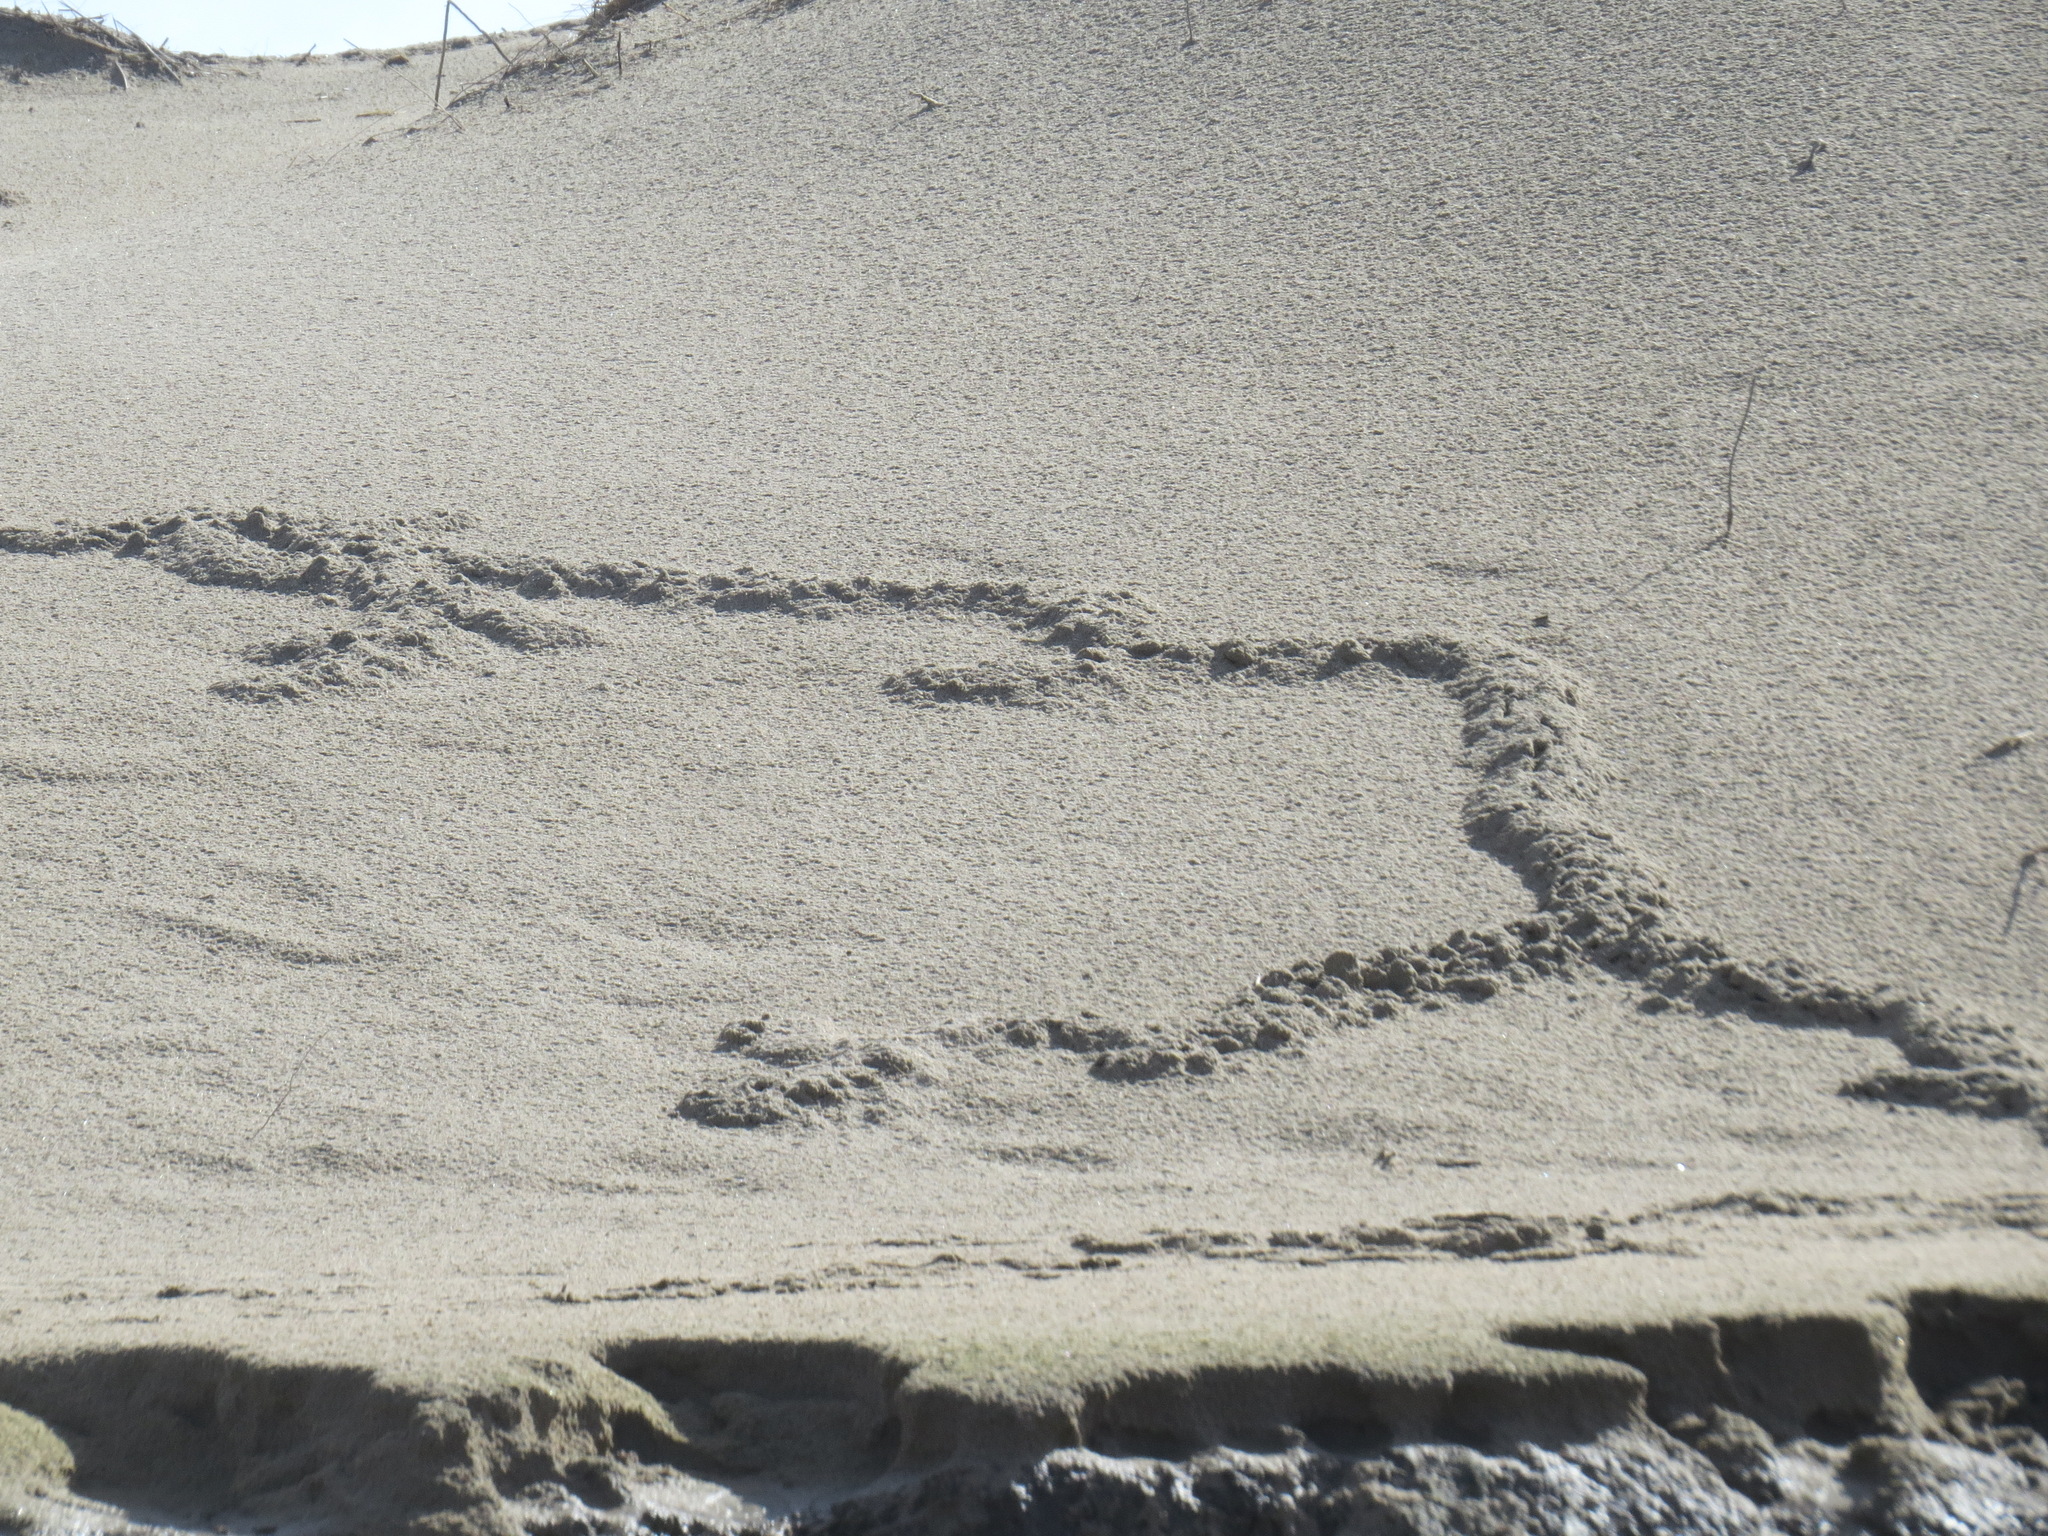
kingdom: Animalia
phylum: Chordata
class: Mammalia
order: Soricomorpha
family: Talpidae
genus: Scapanus
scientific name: Scapanus latimanus
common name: Broad-footed mole
